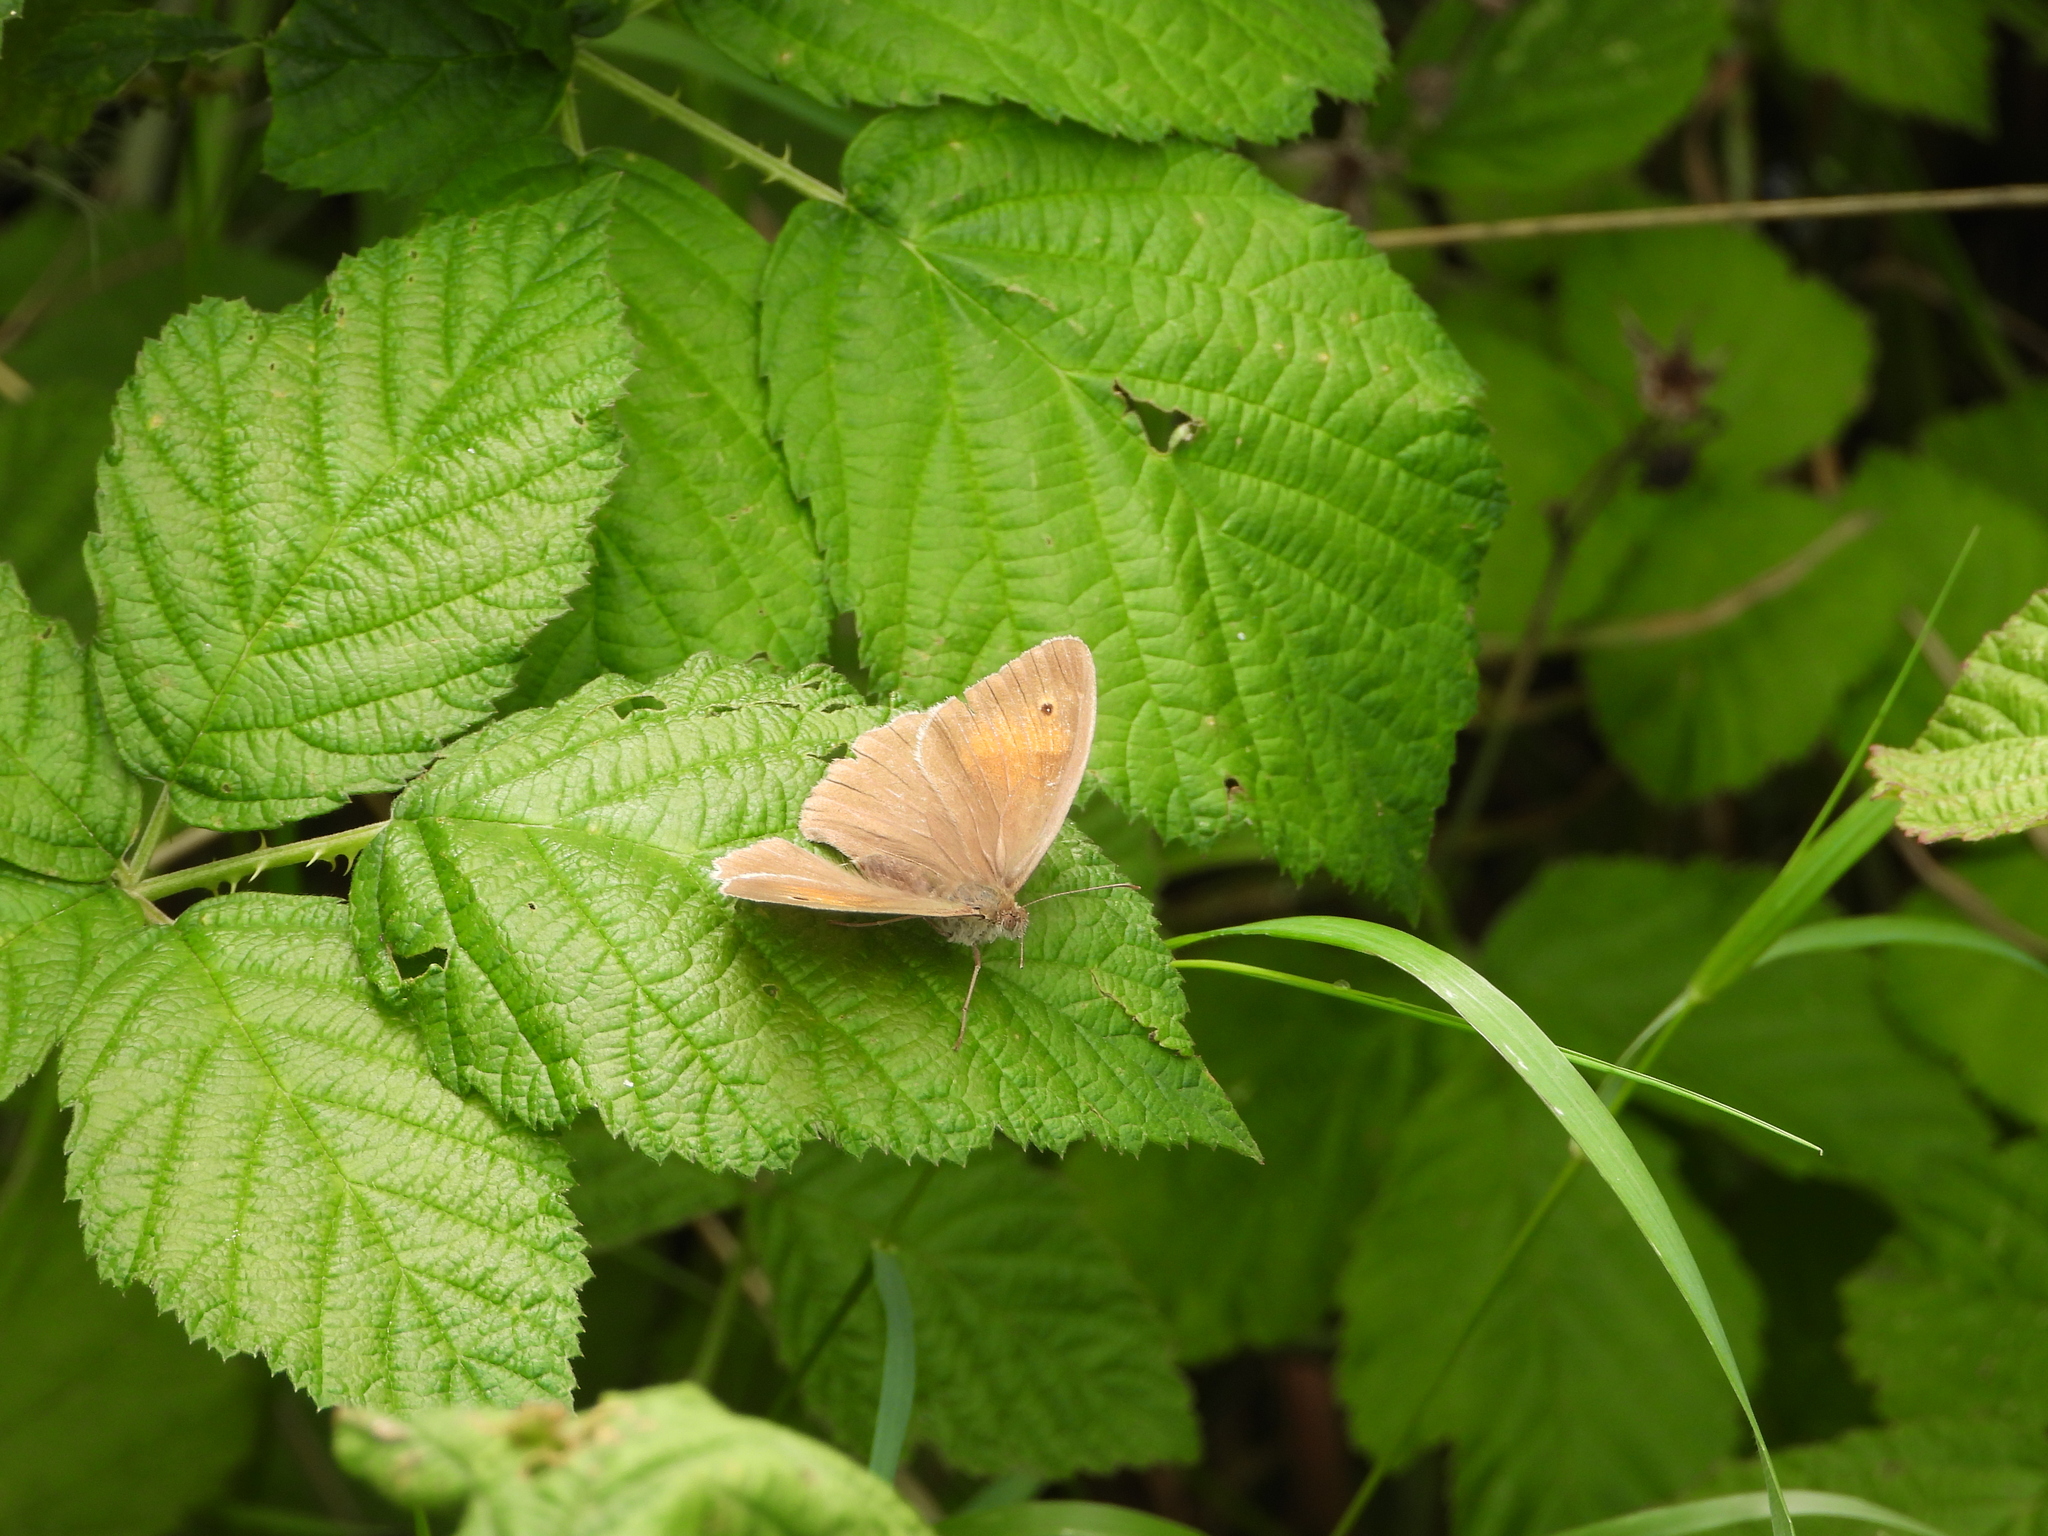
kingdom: Animalia
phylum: Arthropoda
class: Insecta
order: Lepidoptera
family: Nymphalidae
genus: Maniola
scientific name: Maniola jurtina
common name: Meadow brown
